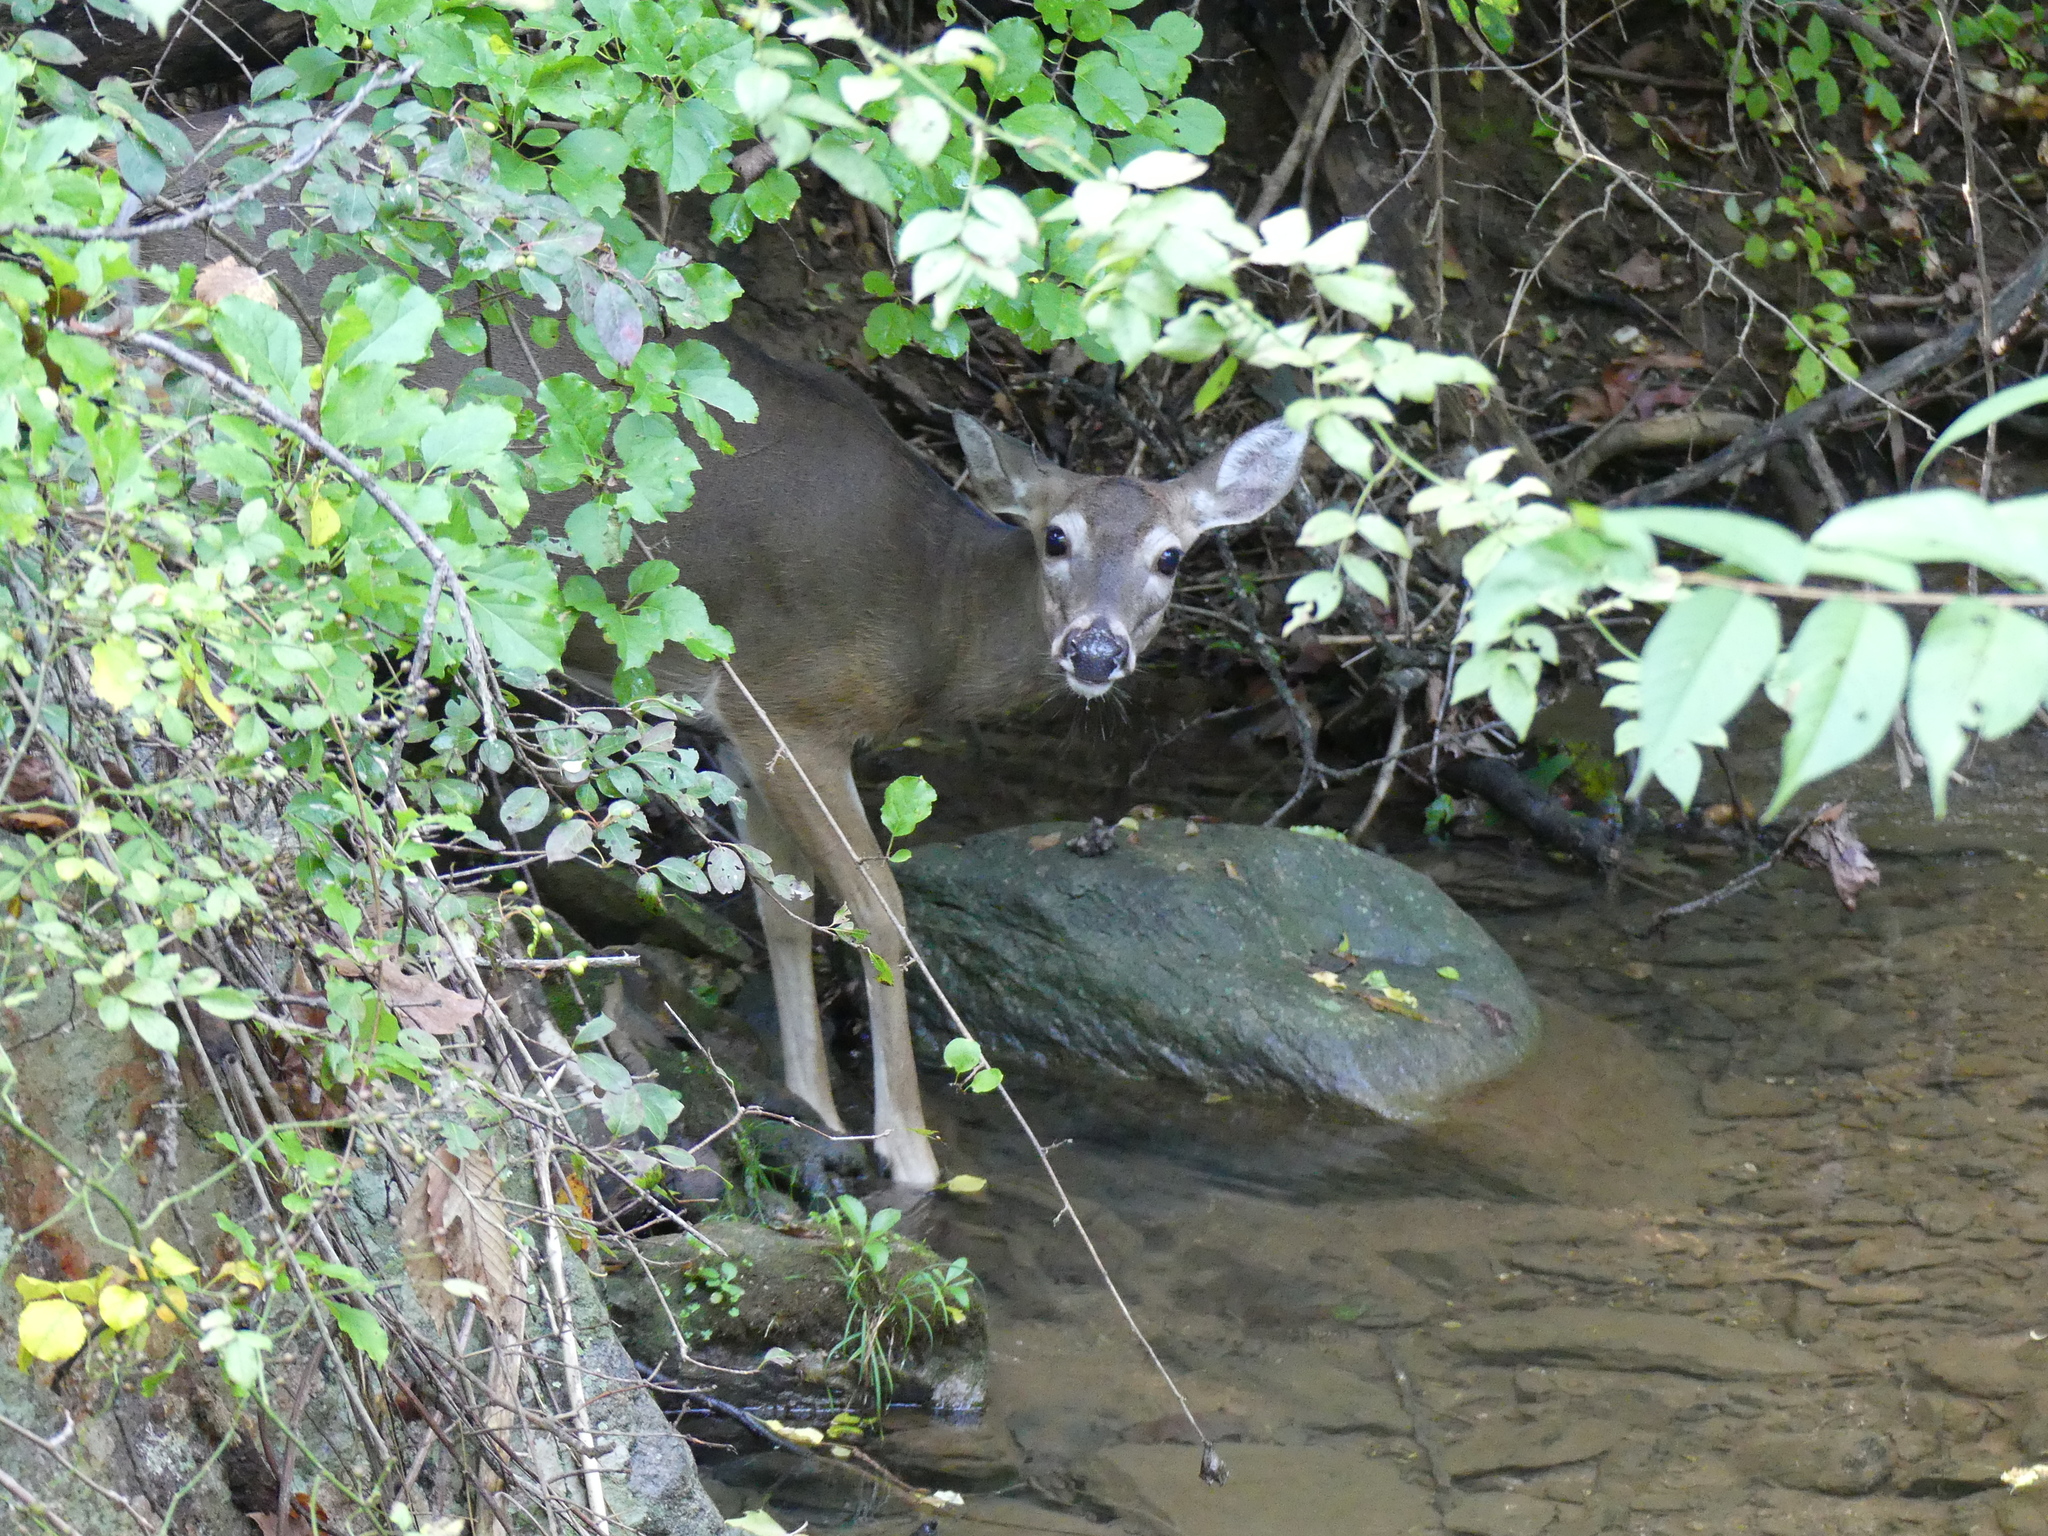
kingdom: Animalia
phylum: Chordata
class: Mammalia
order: Artiodactyla
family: Cervidae
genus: Odocoileus
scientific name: Odocoileus virginianus
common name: White-tailed deer
